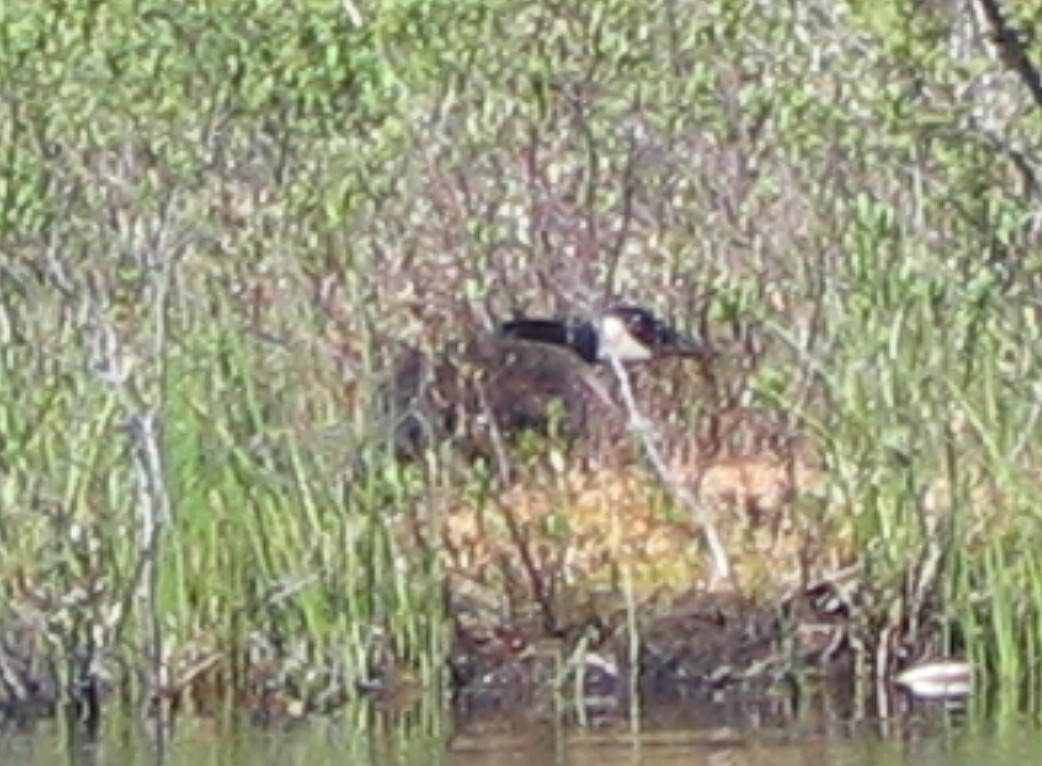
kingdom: Animalia
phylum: Chordata
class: Aves
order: Anseriformes
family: Anatidae
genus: Branta
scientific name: Branta canadensis
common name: Canada goose
